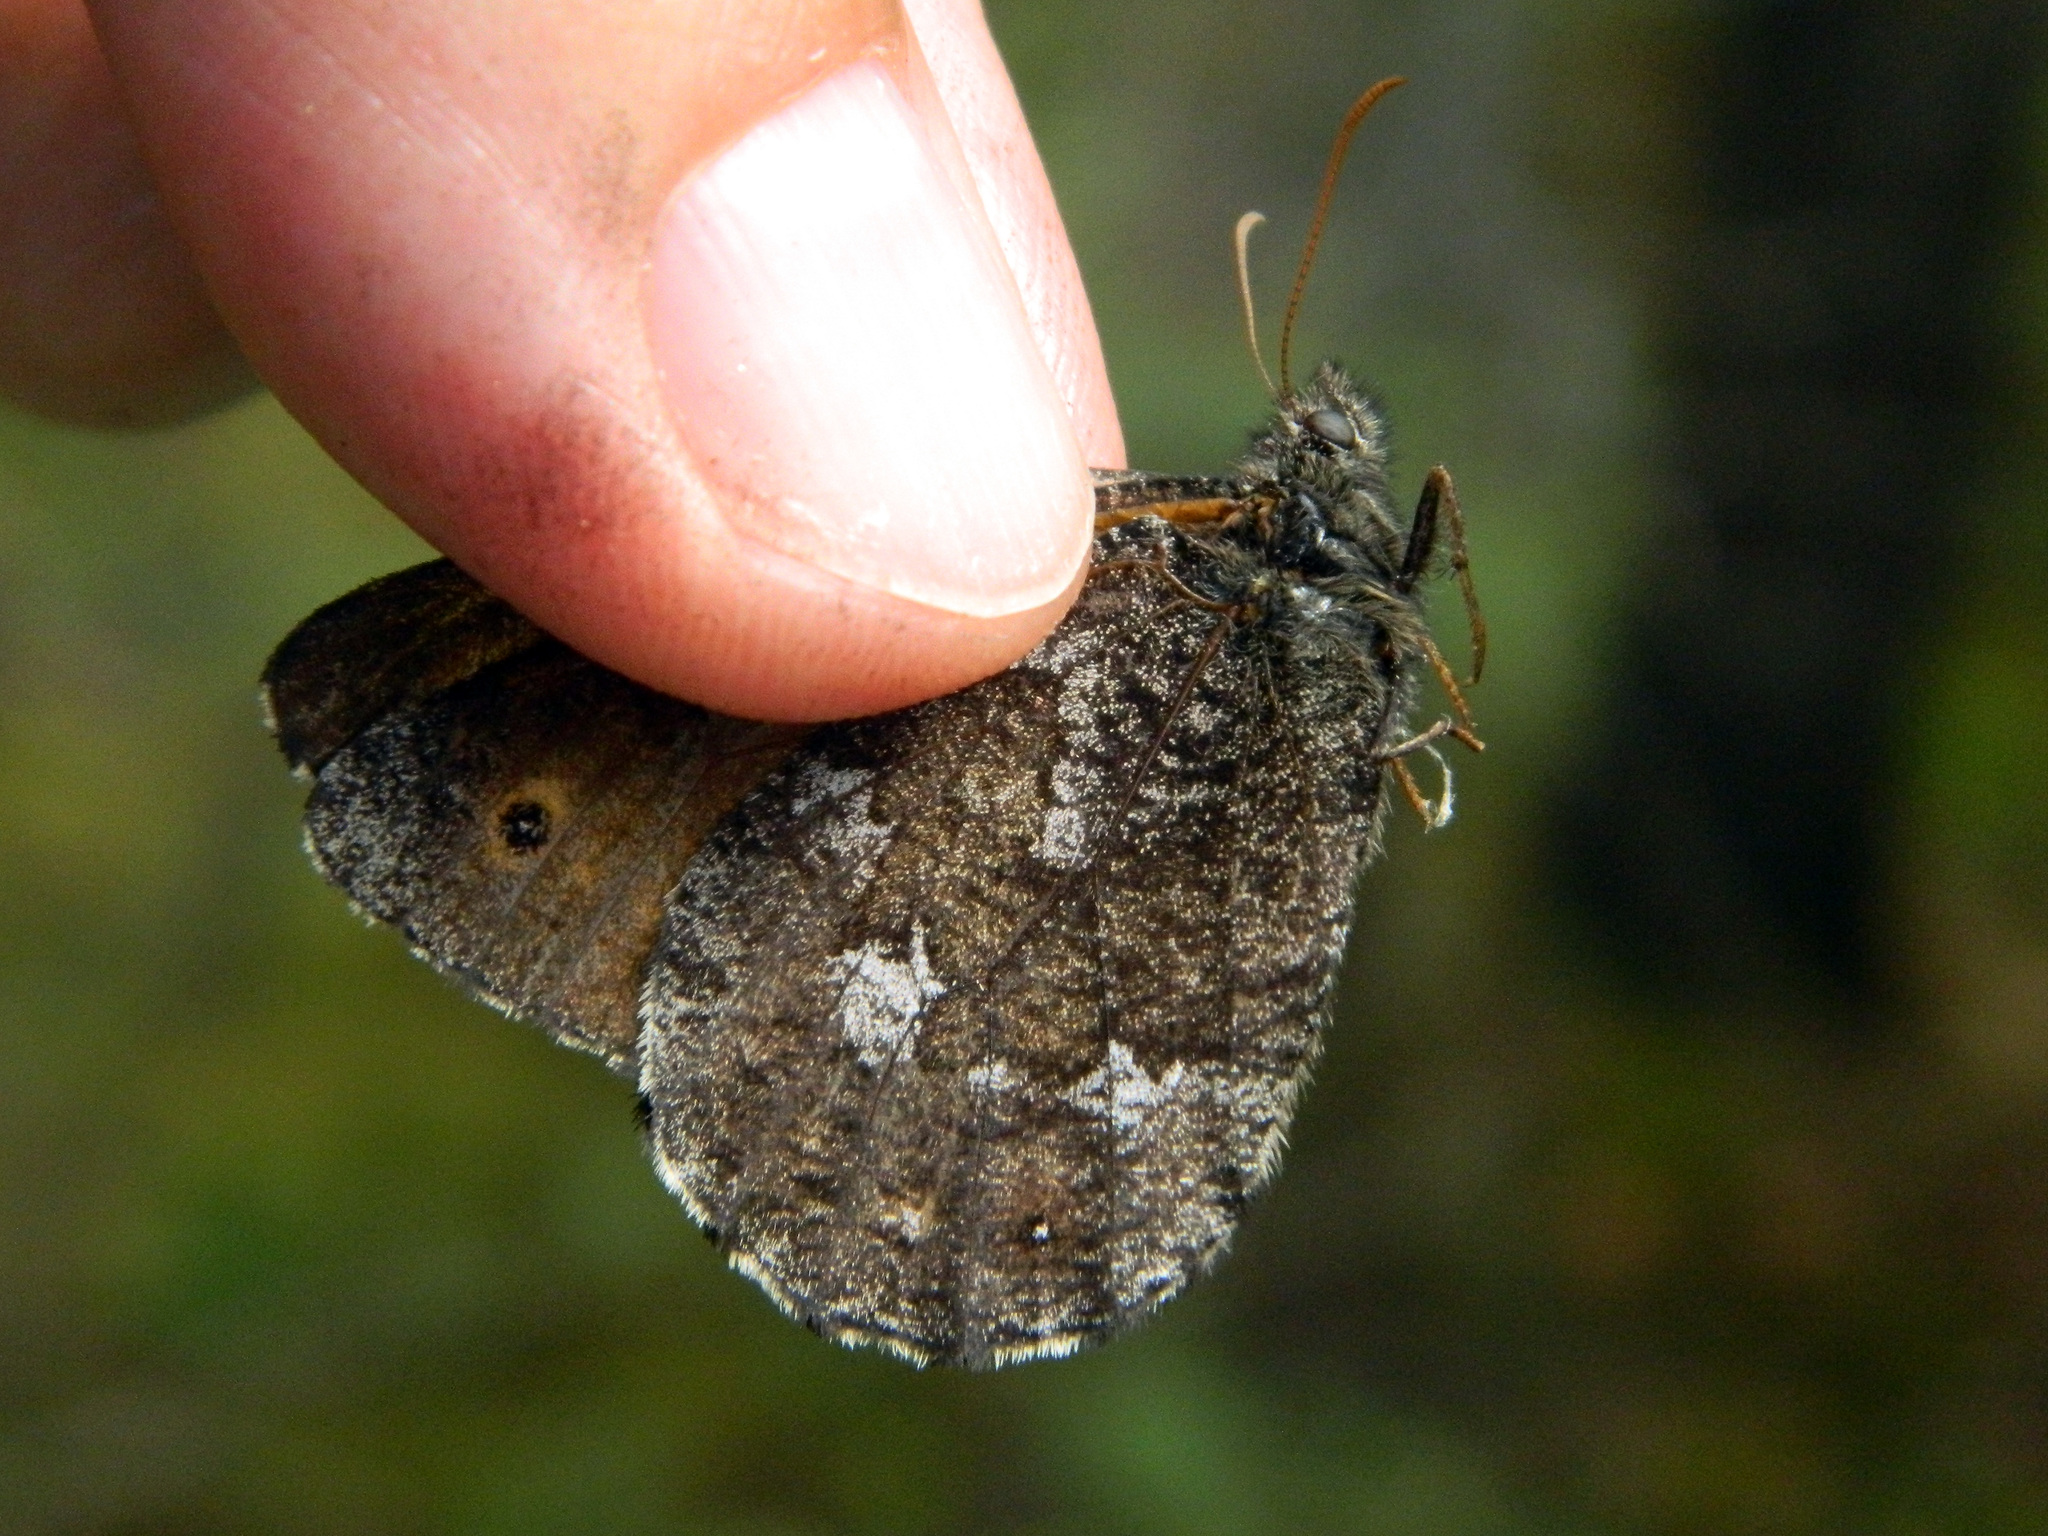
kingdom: Animalia
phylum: Arthropoda
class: Insecta
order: Lepidoptera
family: Nymphalidae
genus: Oeneis
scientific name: Oeneis jutta
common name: Baltic grayling
